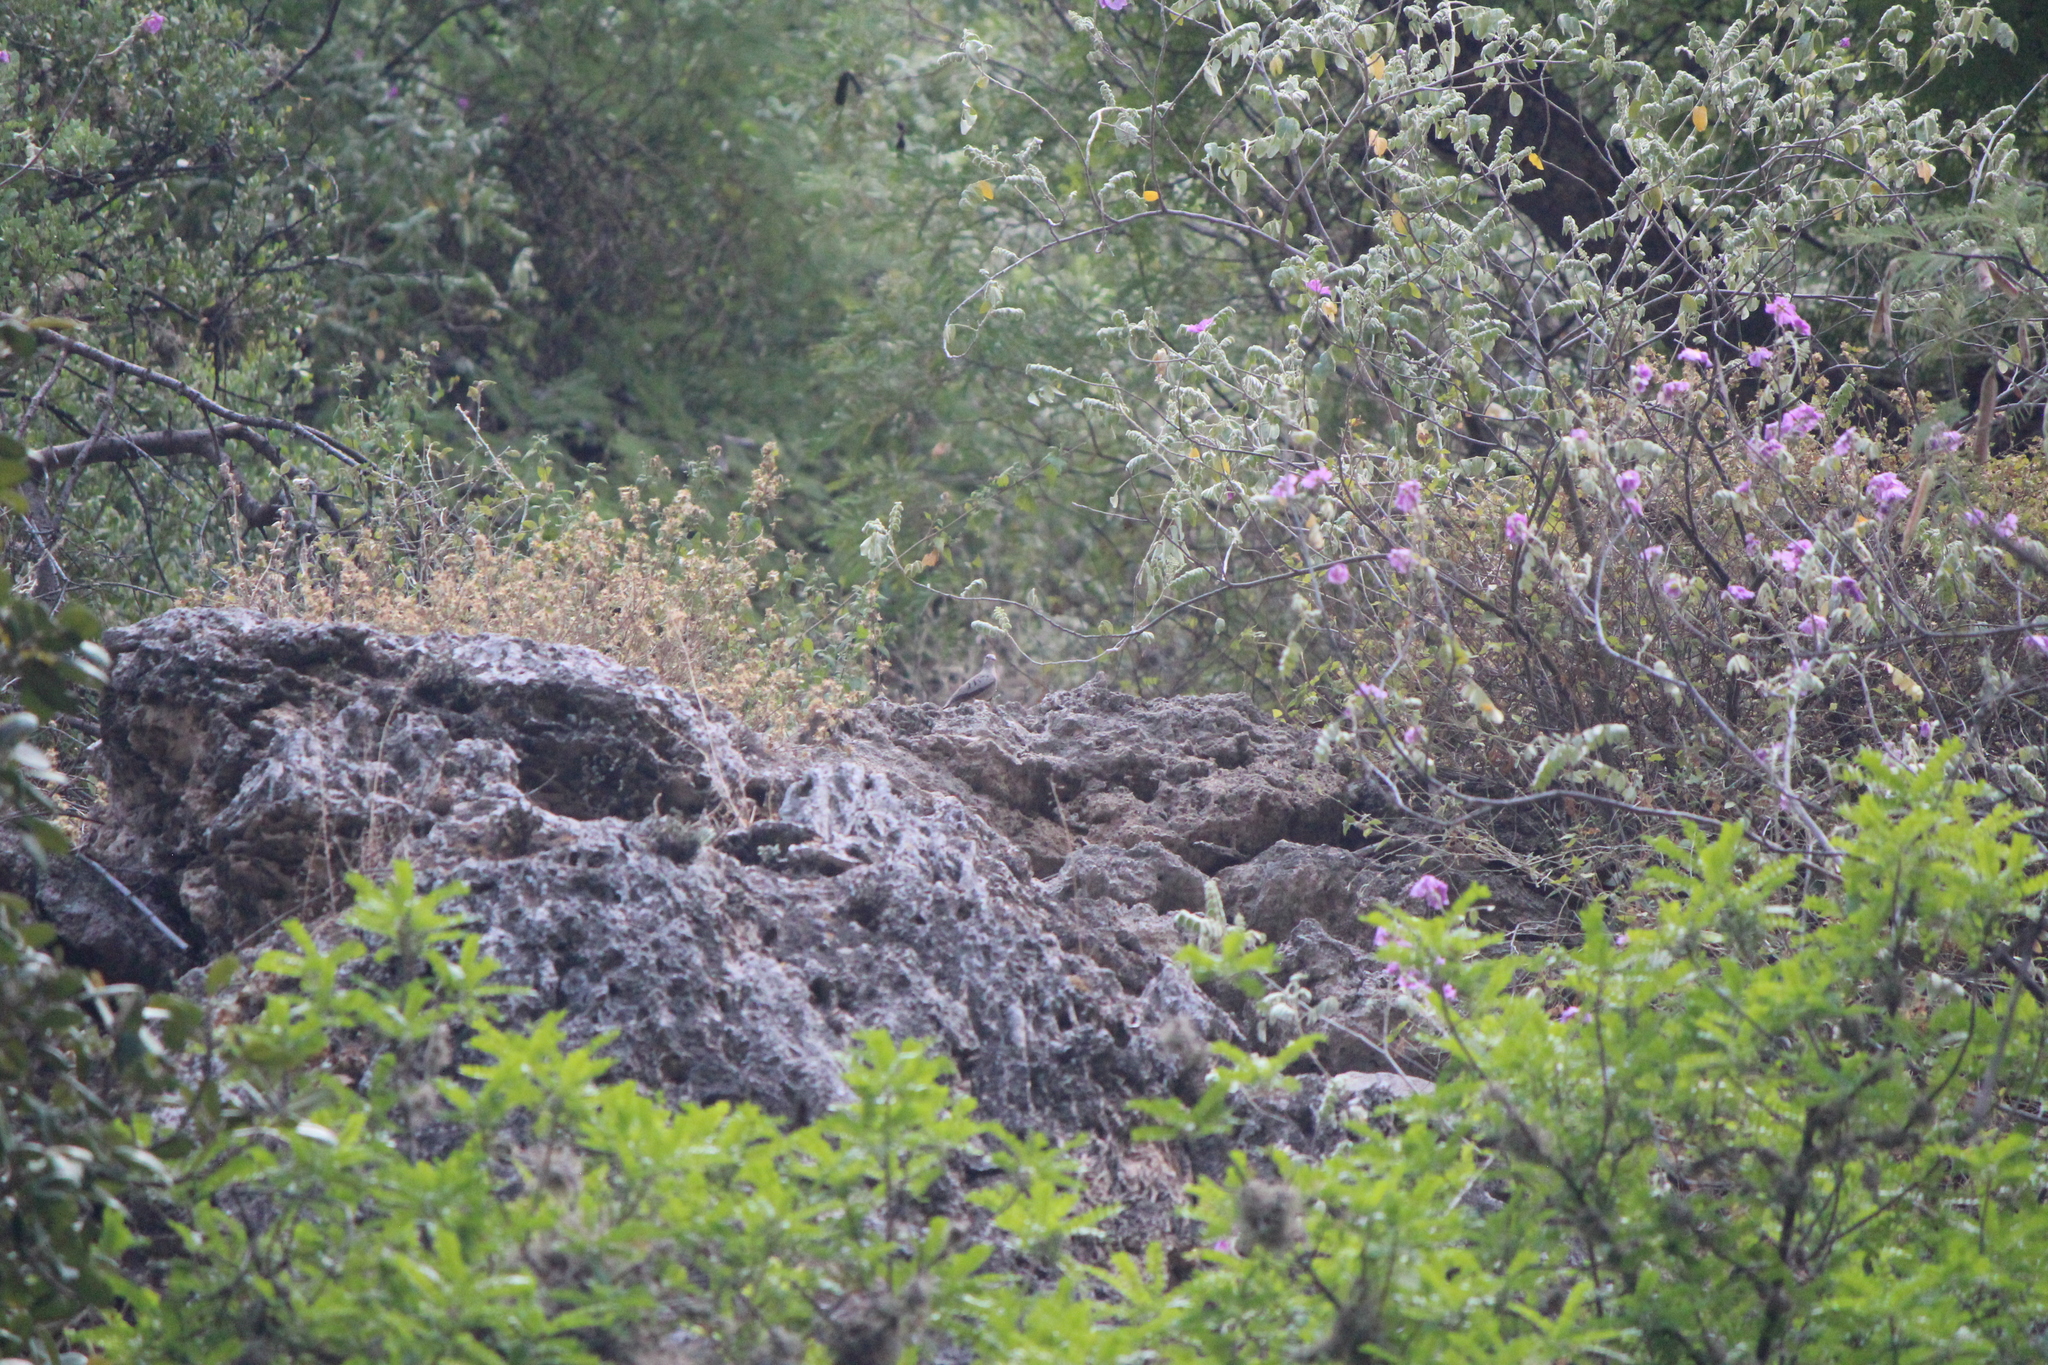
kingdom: Animalia
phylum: Chordata
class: Aves
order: Columbiformes
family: Columbidae
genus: Columbina
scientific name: Columbina talpacoti
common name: Ruddy ground dove
